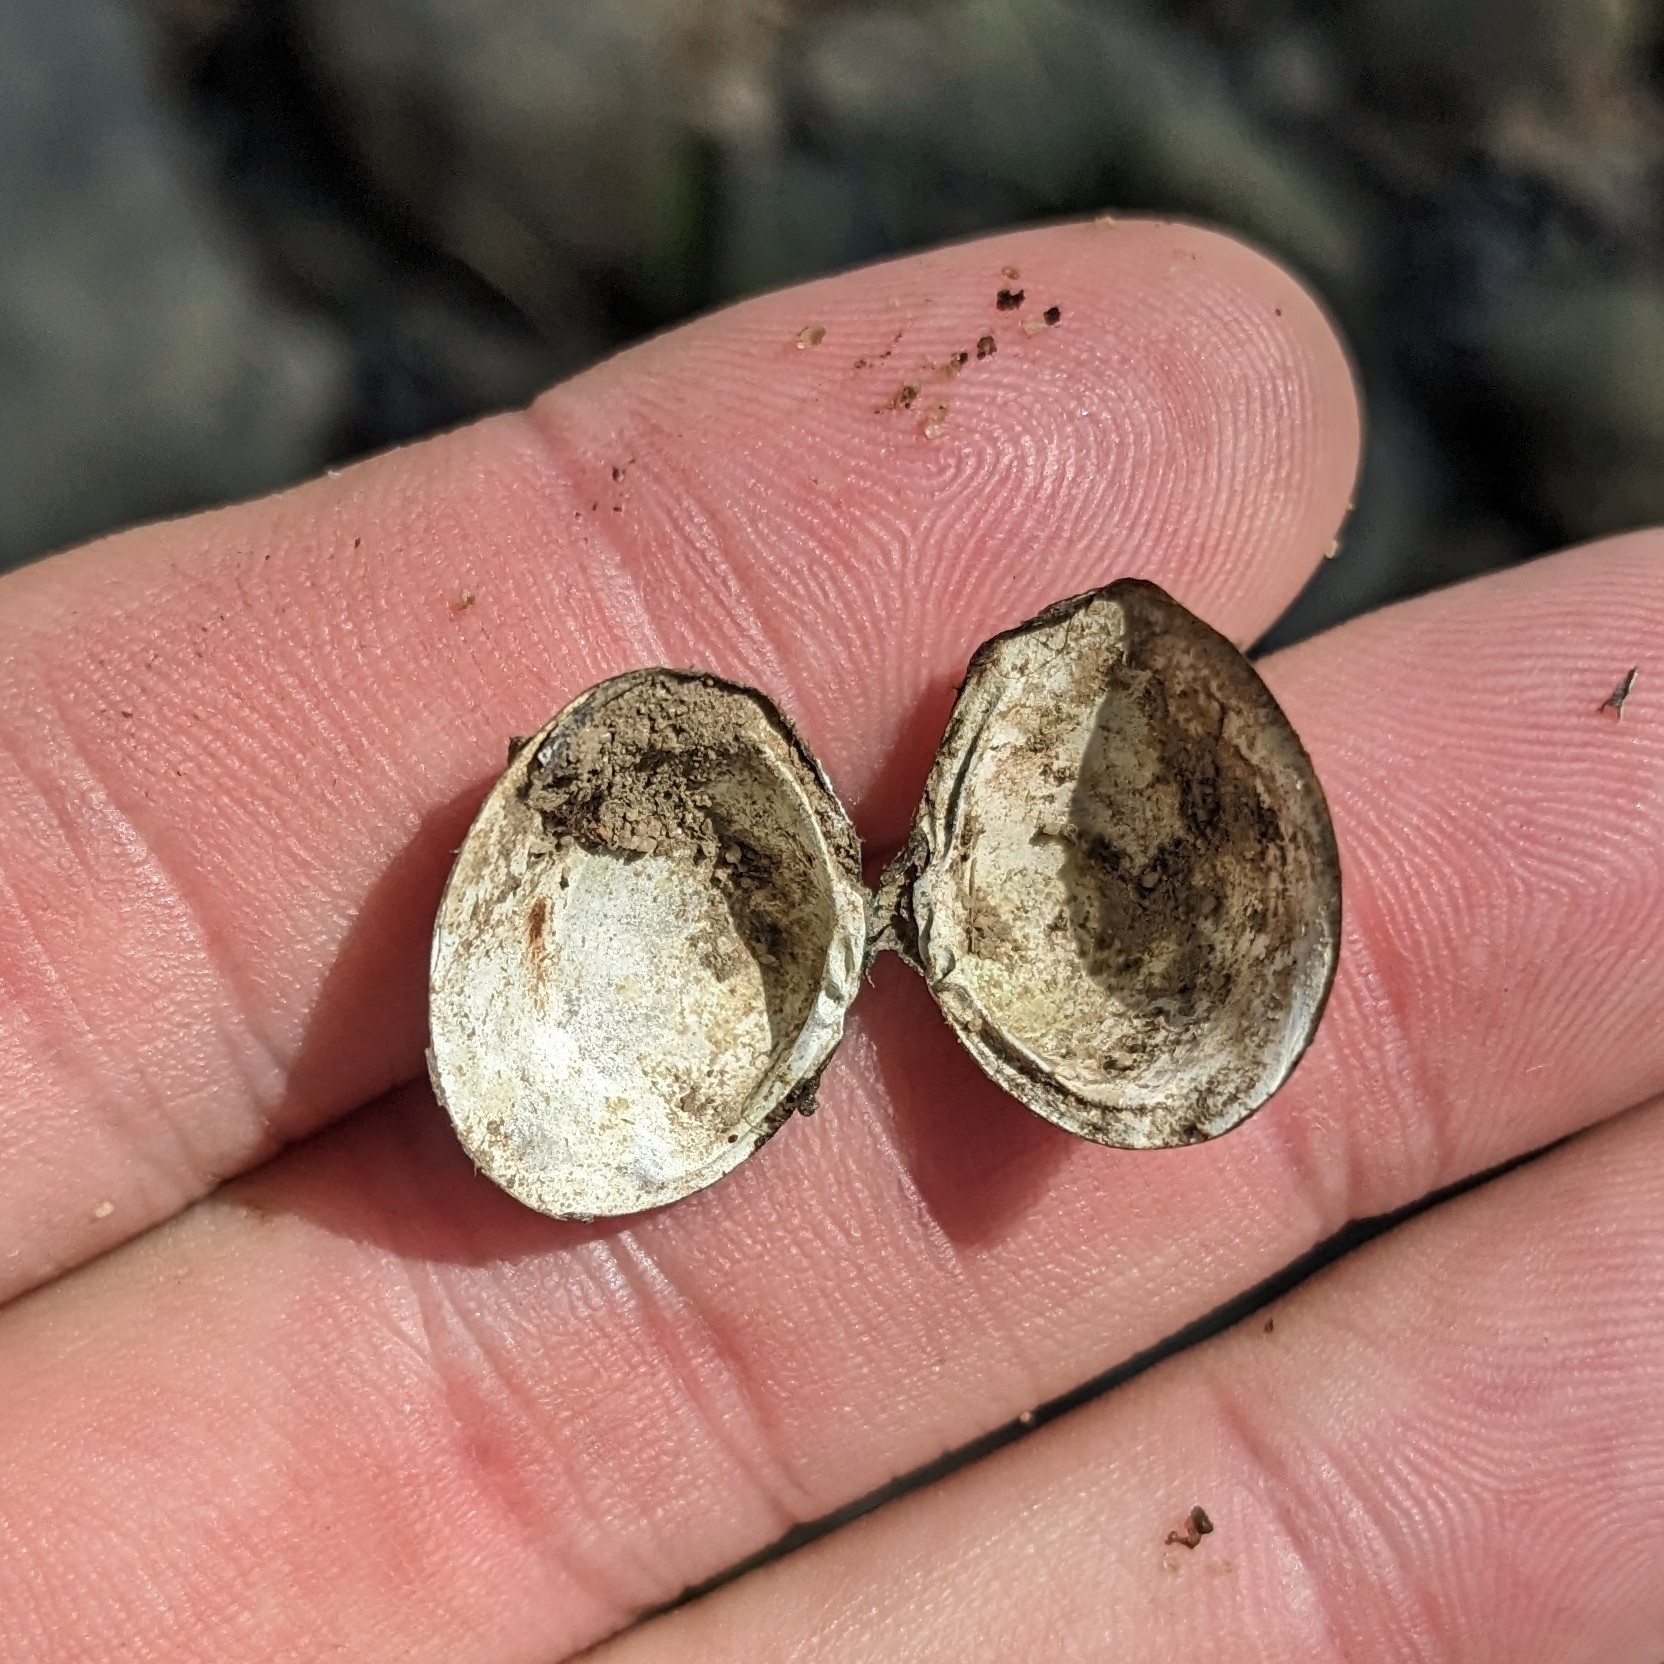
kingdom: Animalia
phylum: Mollusca
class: Bivalvia
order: Venerida
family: Cyrenidae
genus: Corbicula
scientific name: Corbicula fluminea
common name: Asian clam
